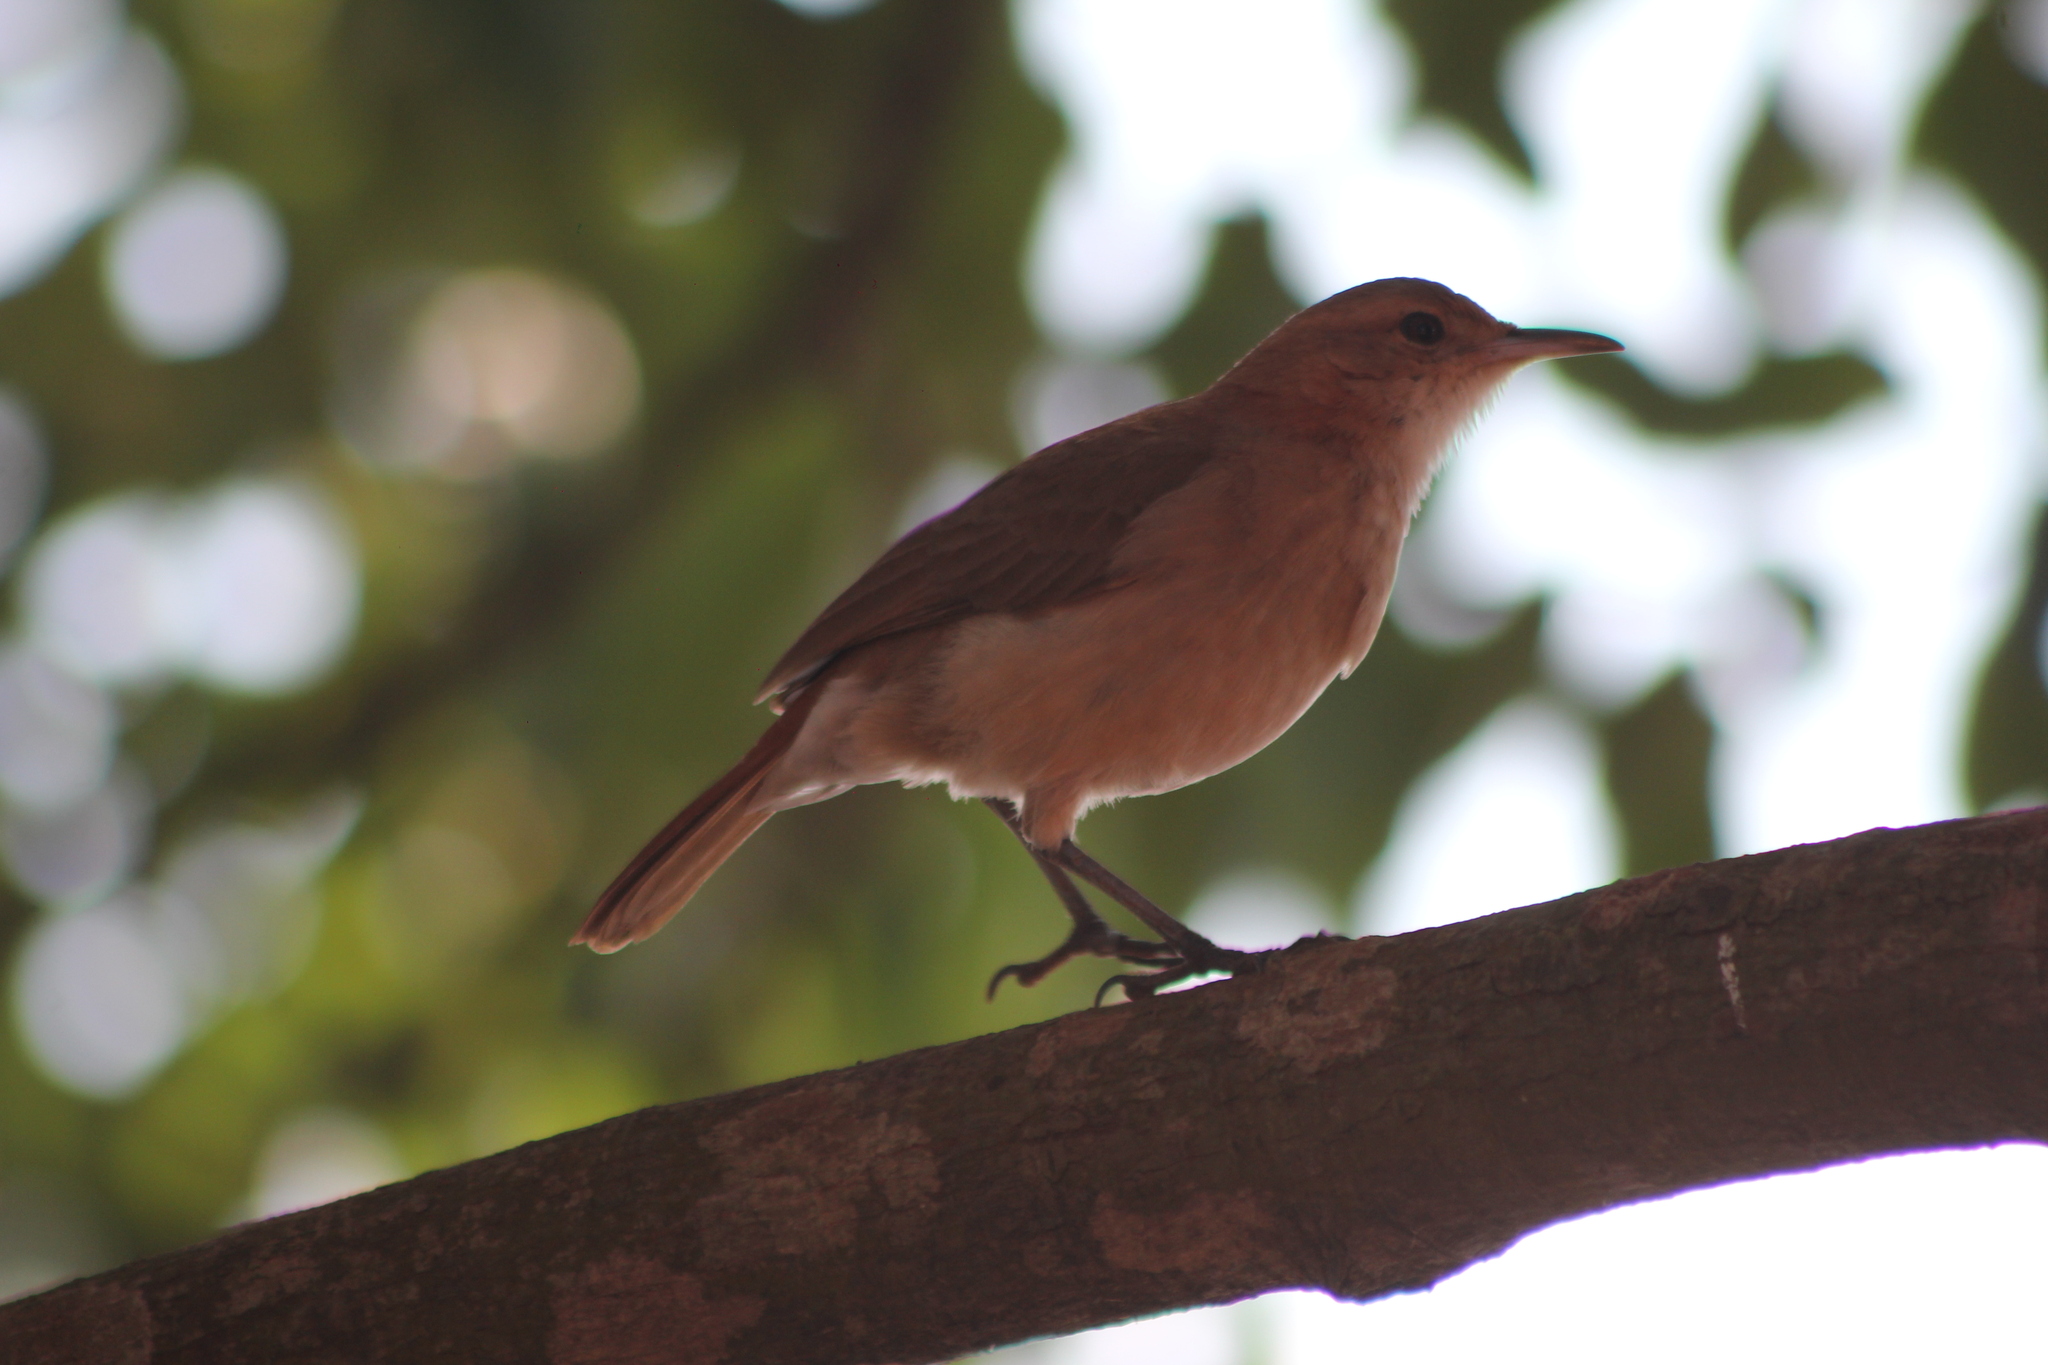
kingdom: Animalia
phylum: Chordata
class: Aves
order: Passeriformes
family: Furnariidae
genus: Furnarius
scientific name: Furnarius rufus
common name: Rufous hornero
